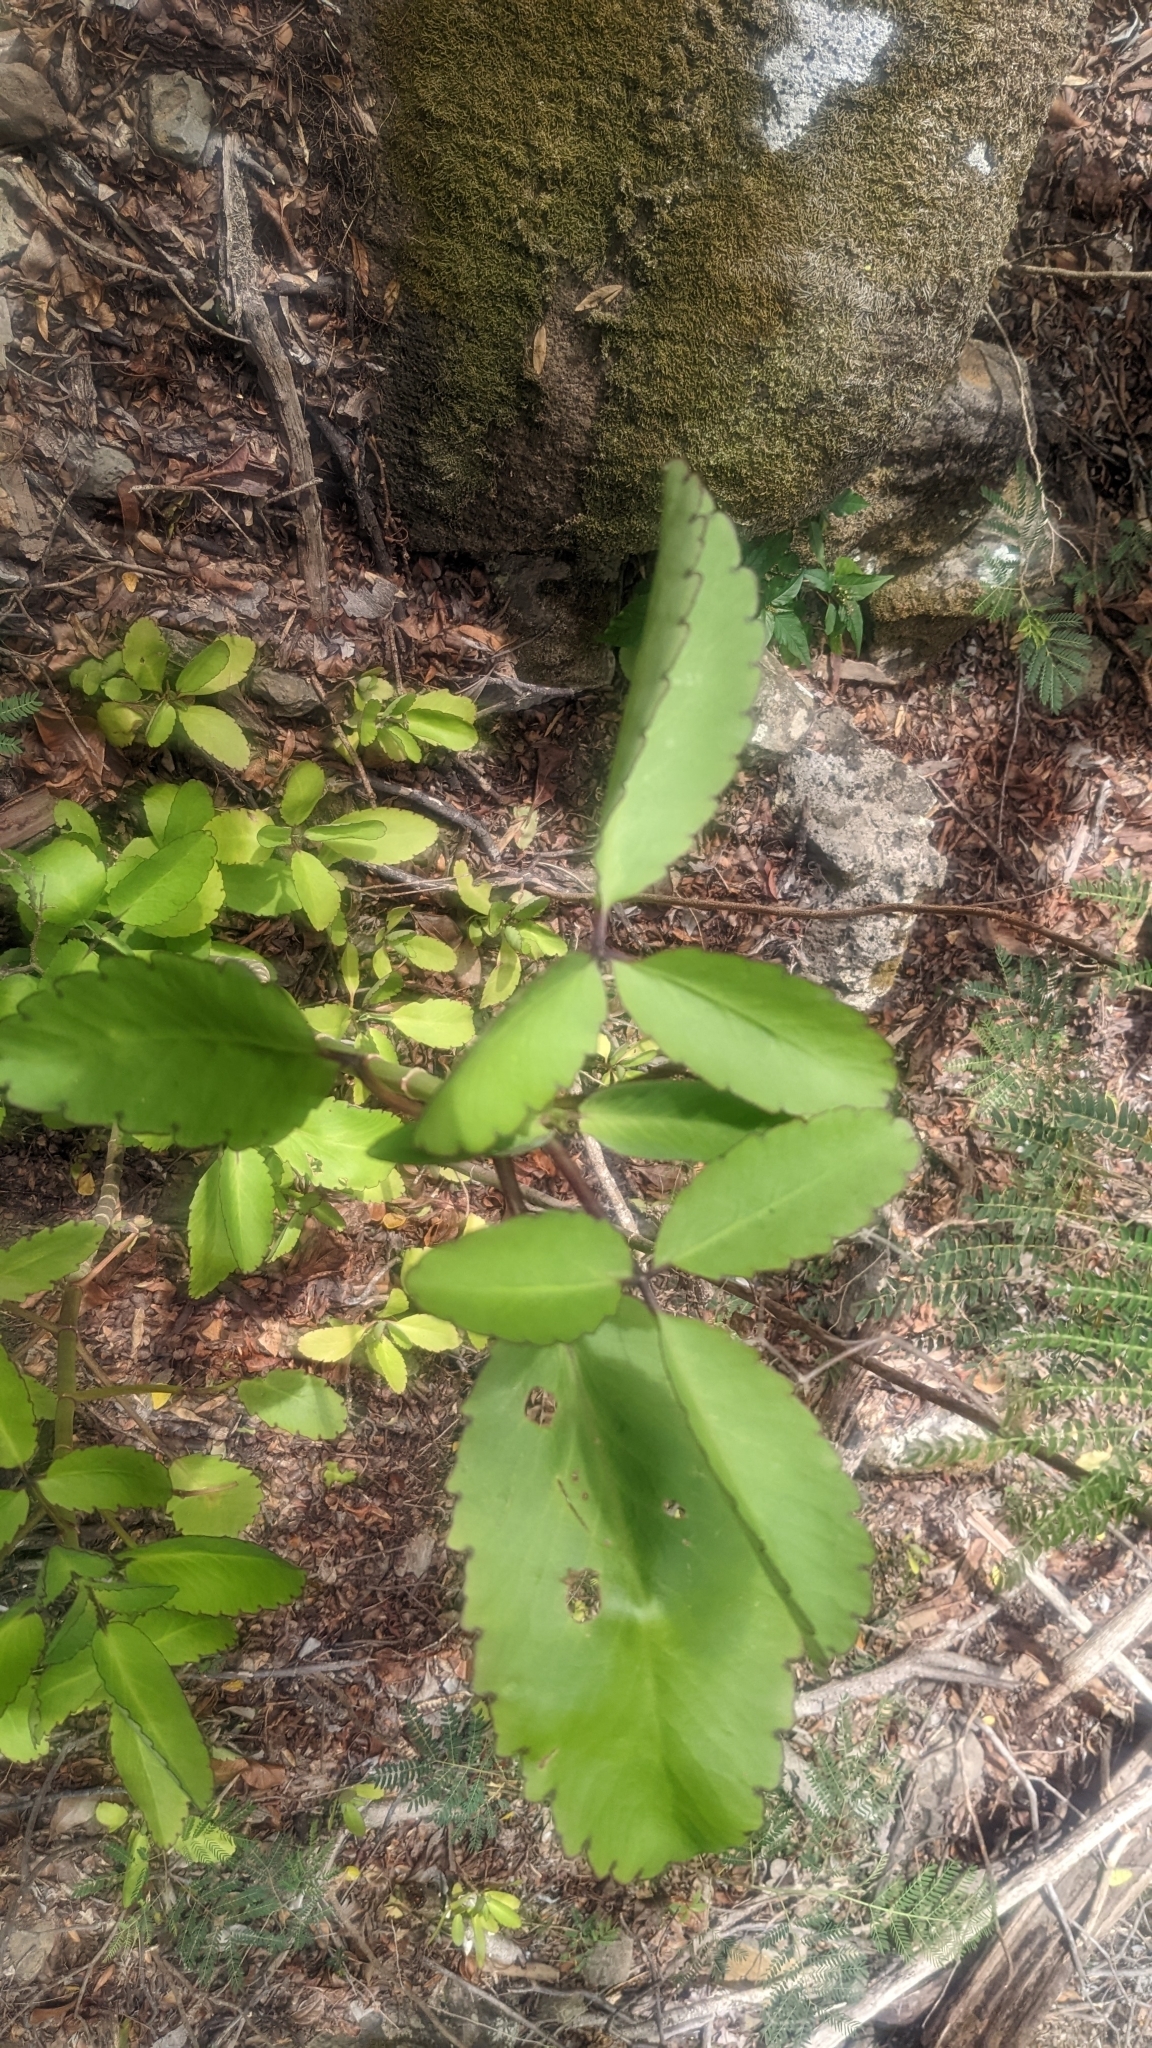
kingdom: Plantae
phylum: Tracheophyta
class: Magnoliopsida
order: Saxifragales
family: Crassulaceae
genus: Kalanchoe
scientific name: Kalanchoe pinnata
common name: Cathedral bells
